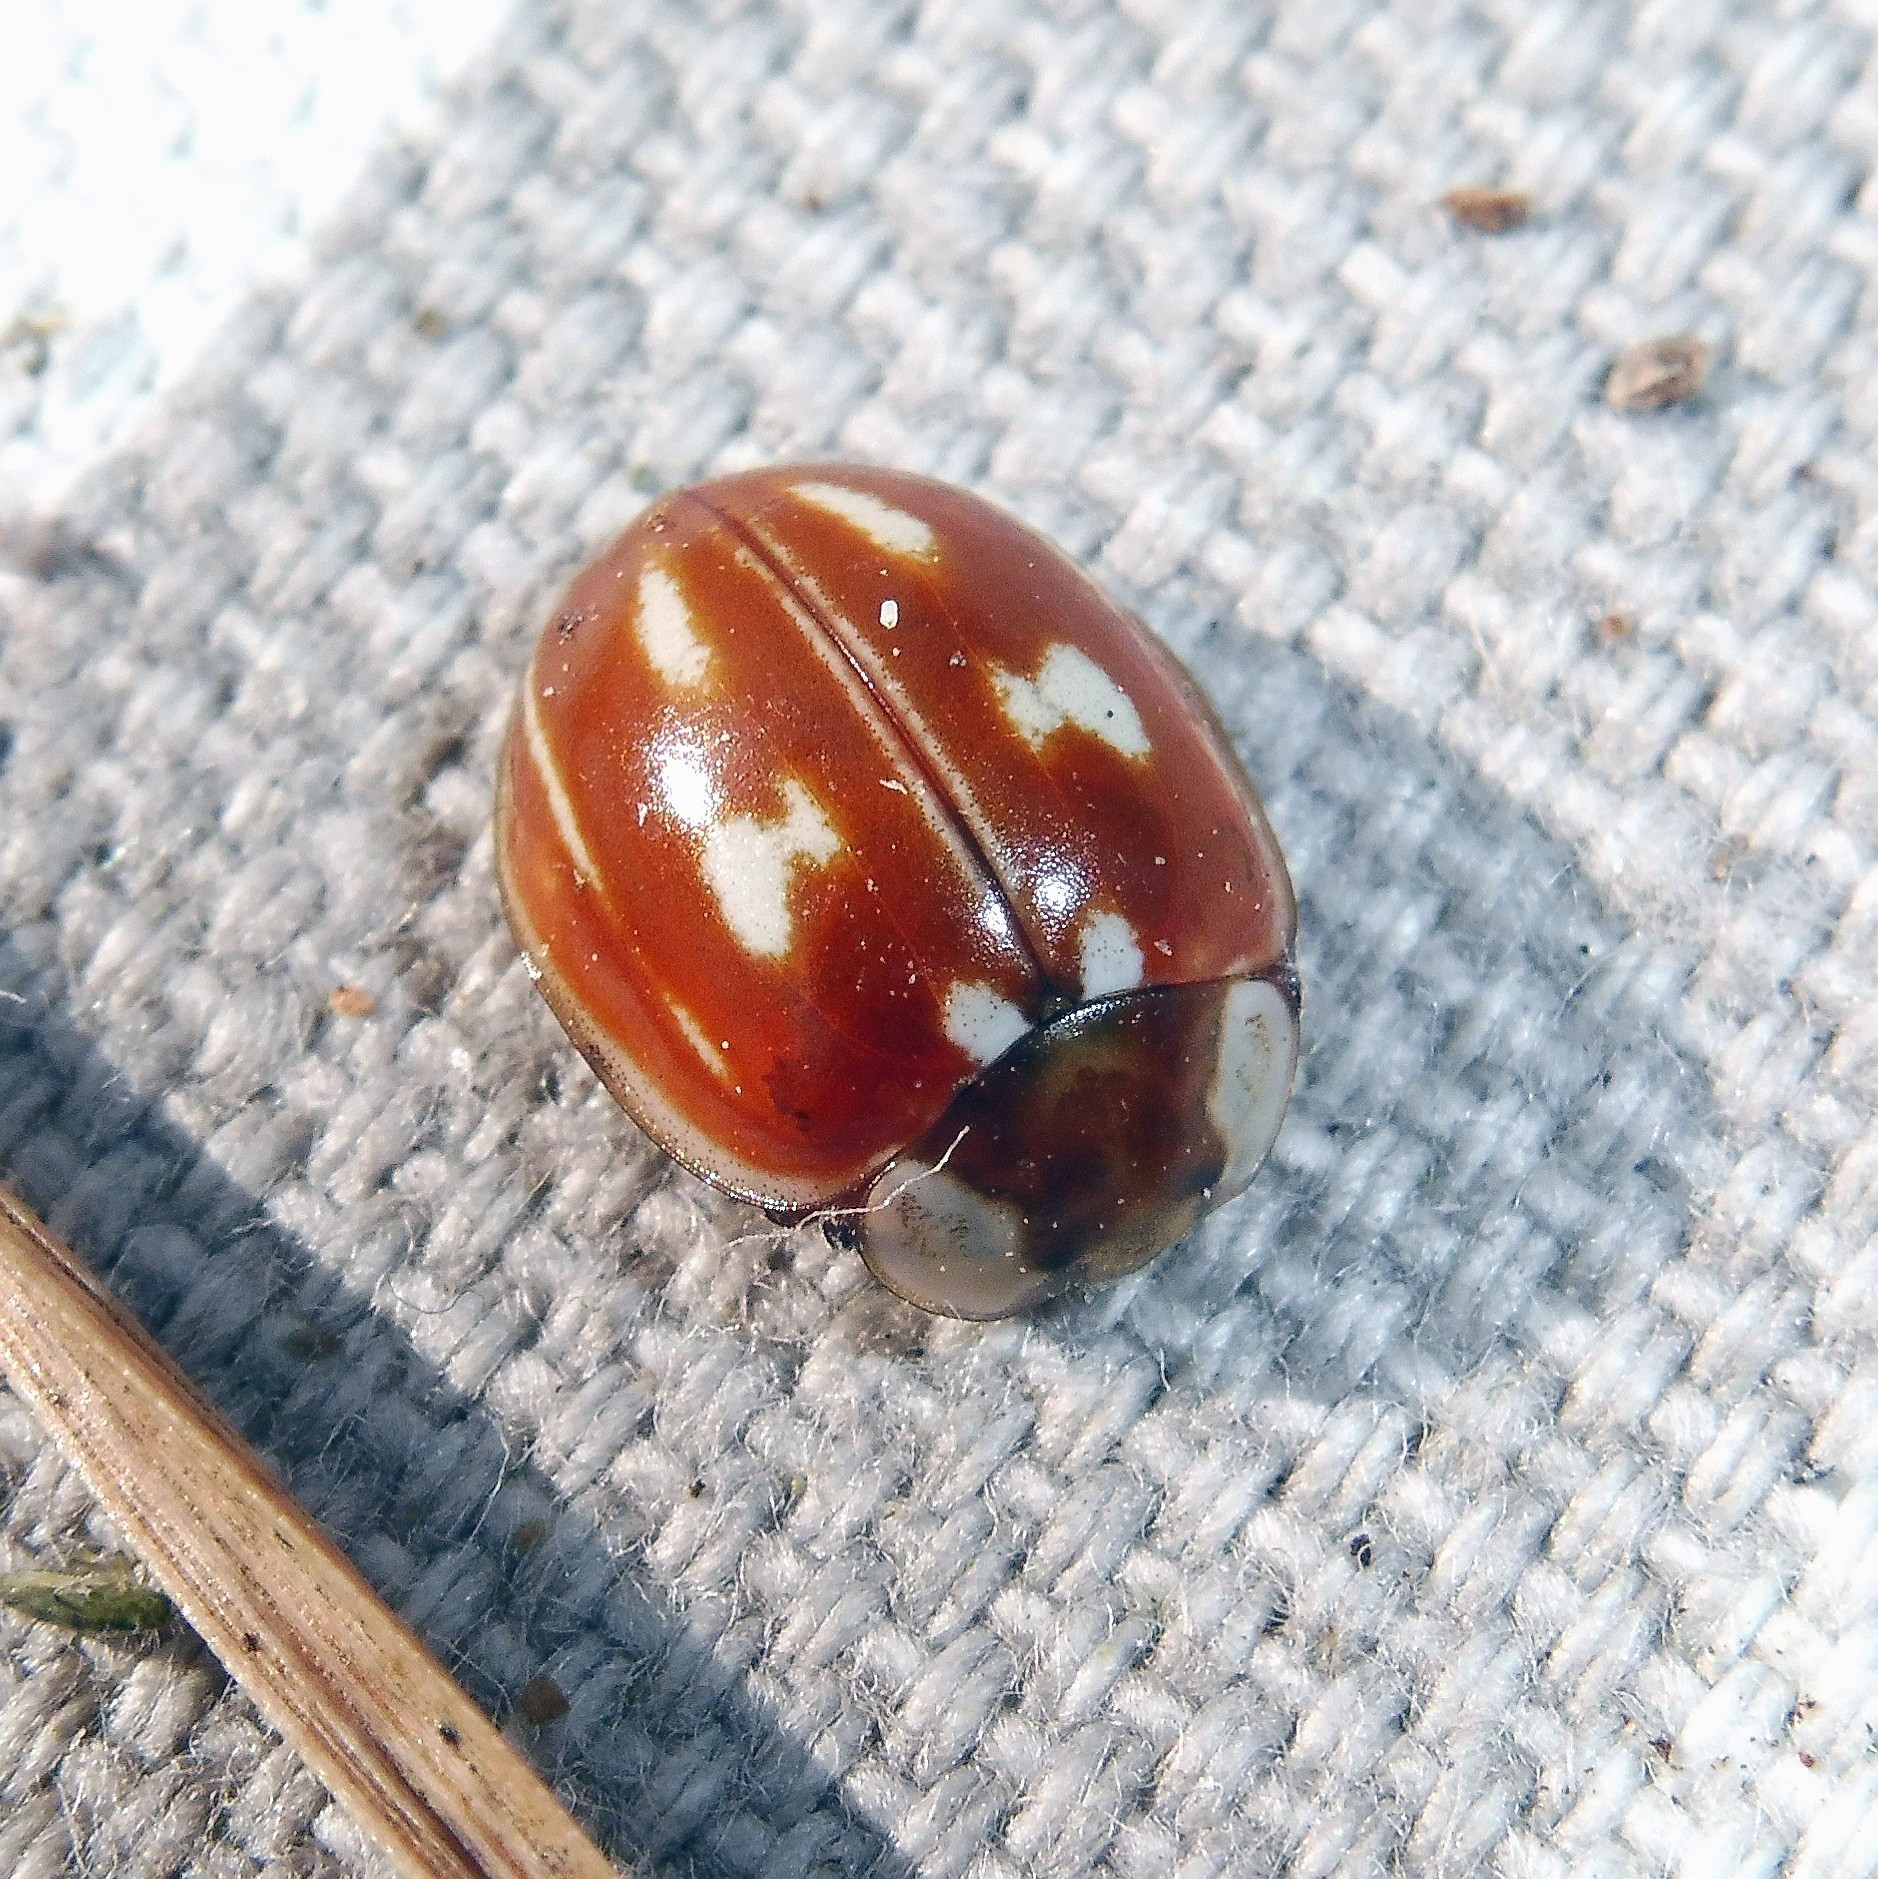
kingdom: Animalia
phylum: Arthropoda
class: Insecta
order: Coleoptera
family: Coccinellidae
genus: Myzia
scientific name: Myzia oblongoguttata
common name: Striped ladybird
